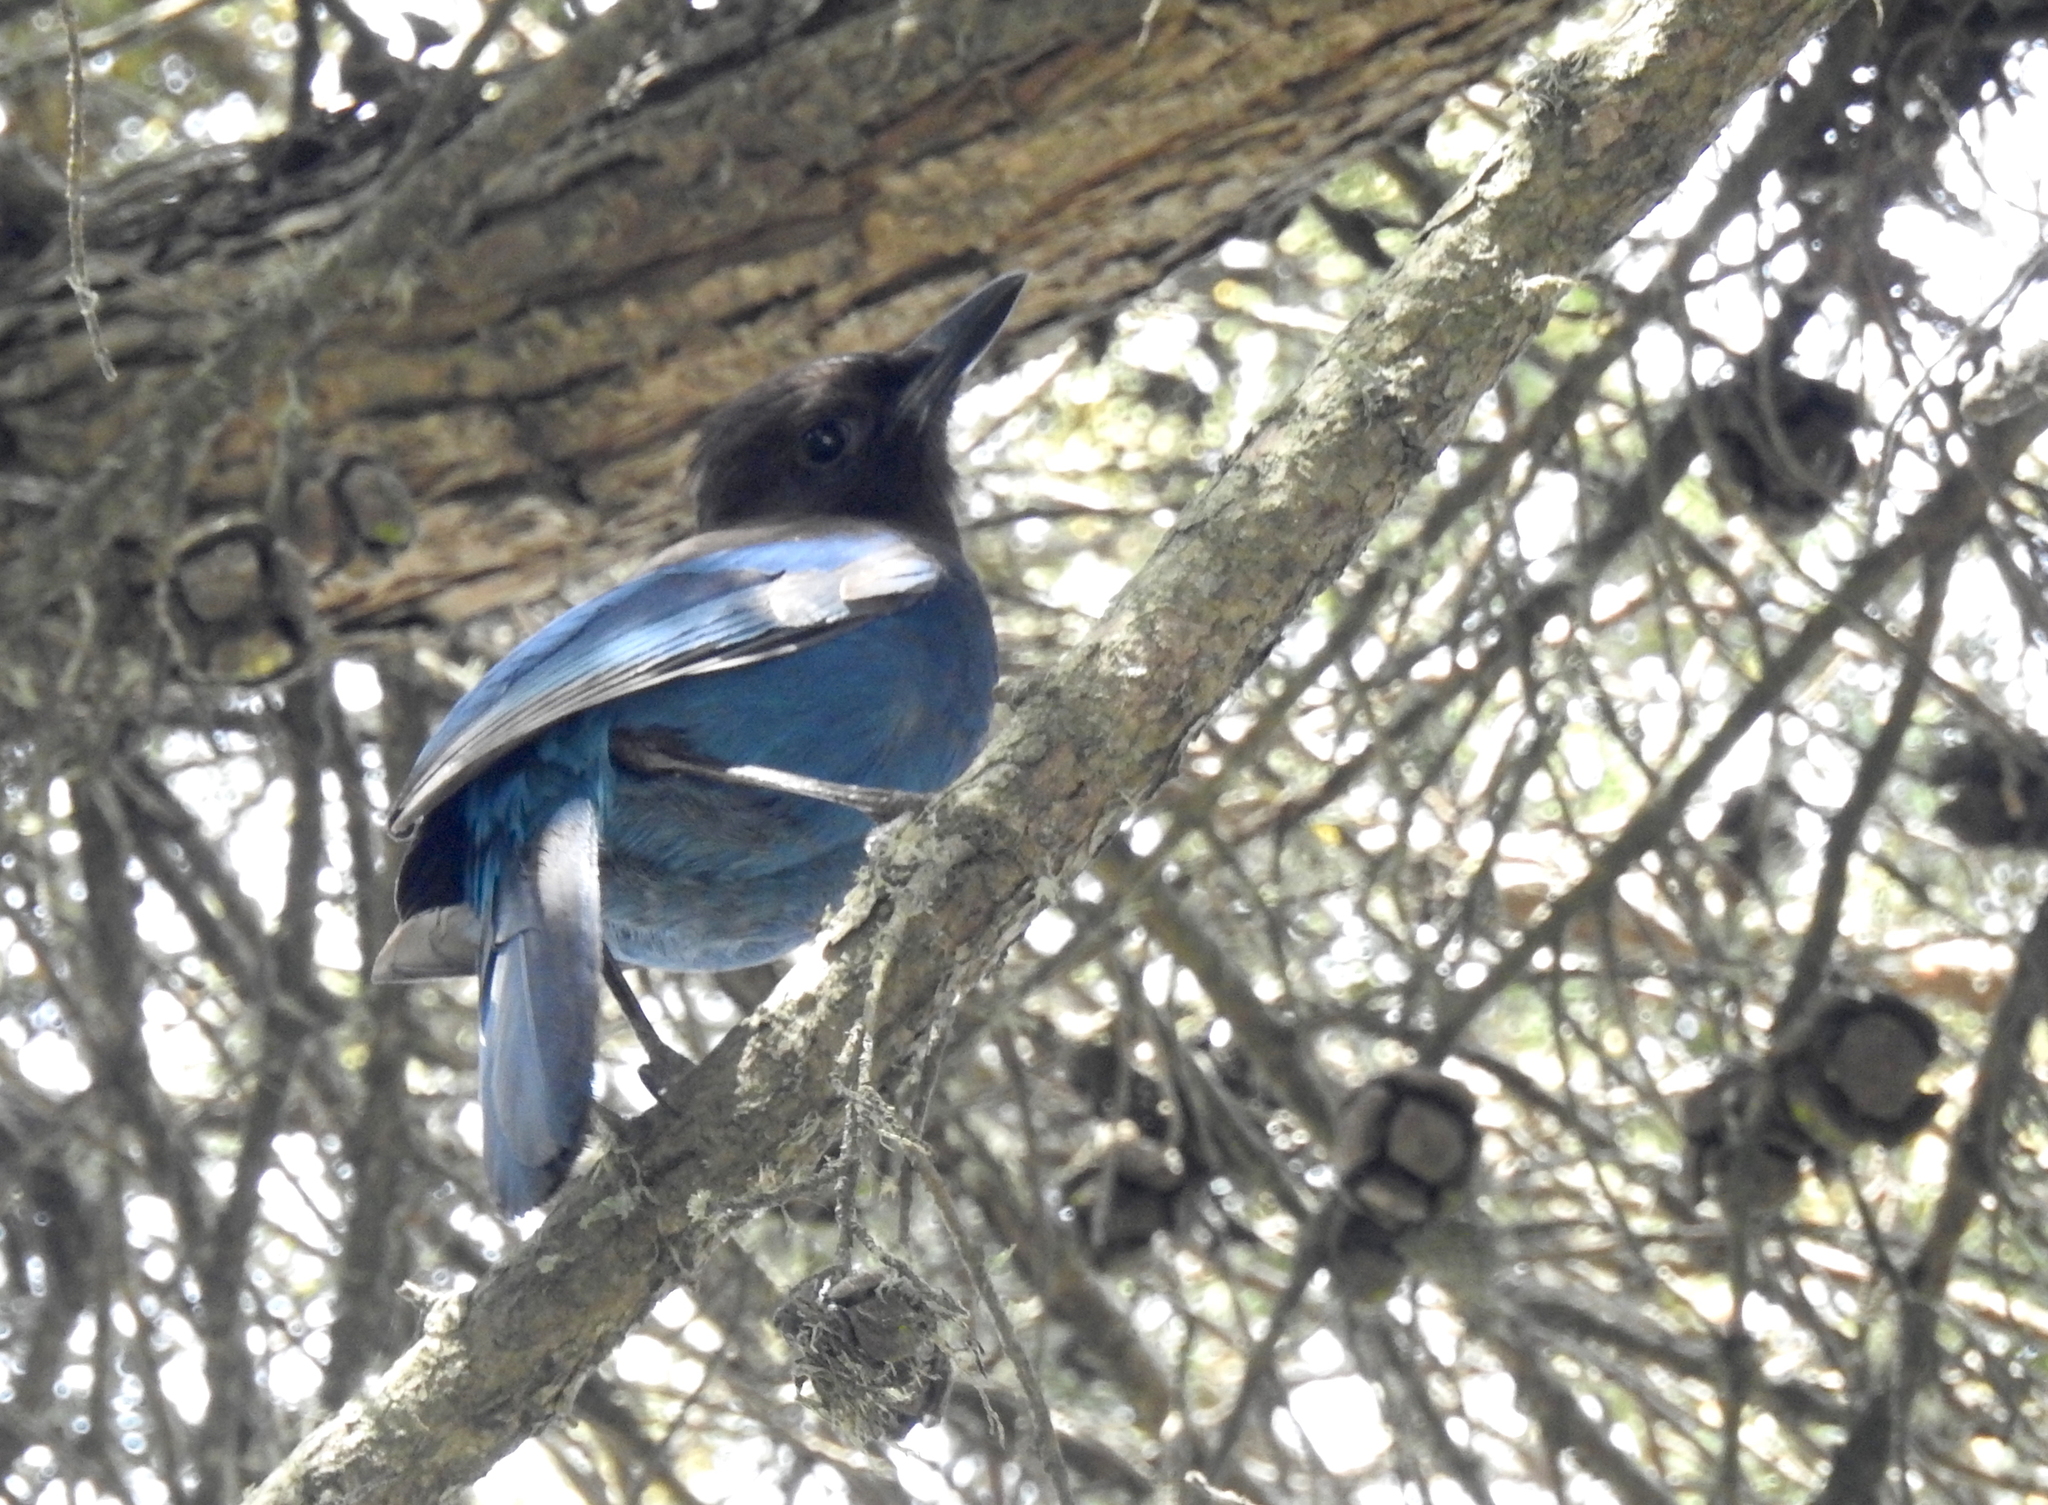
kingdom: Animalia
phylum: Chordata
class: Aves
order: Passeriformes
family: Corvidae
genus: Cyanocitta
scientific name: Cyanocitta stelleri
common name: Steller's jay
